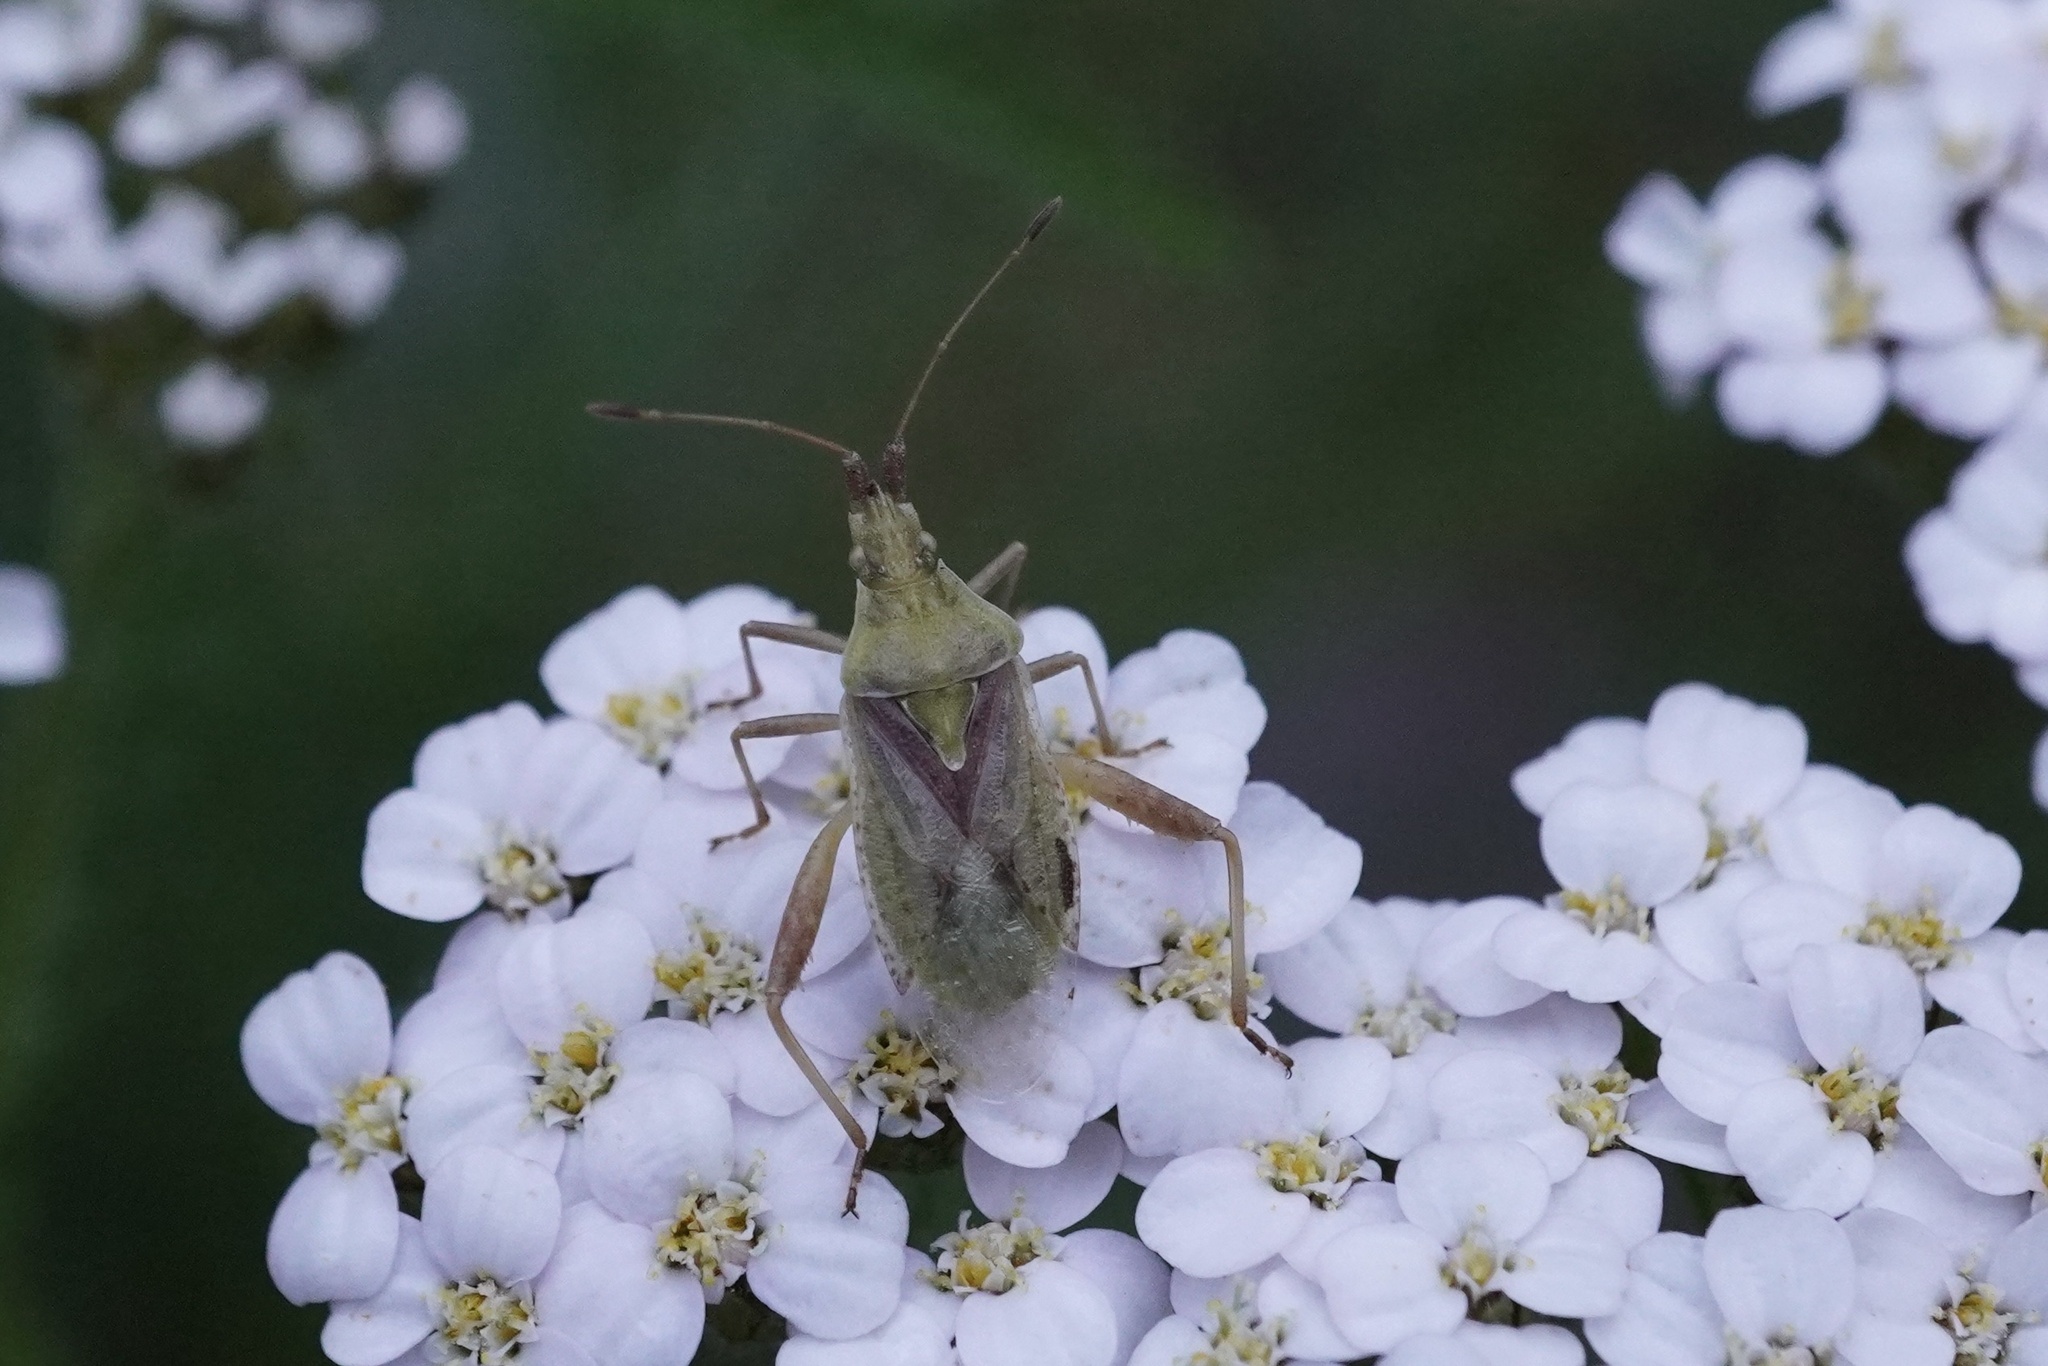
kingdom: Animalia
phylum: Arthropoda
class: Insecta
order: Hemiptera
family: Rhopalidae
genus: Harmostes
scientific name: Harmostes reflexulus
